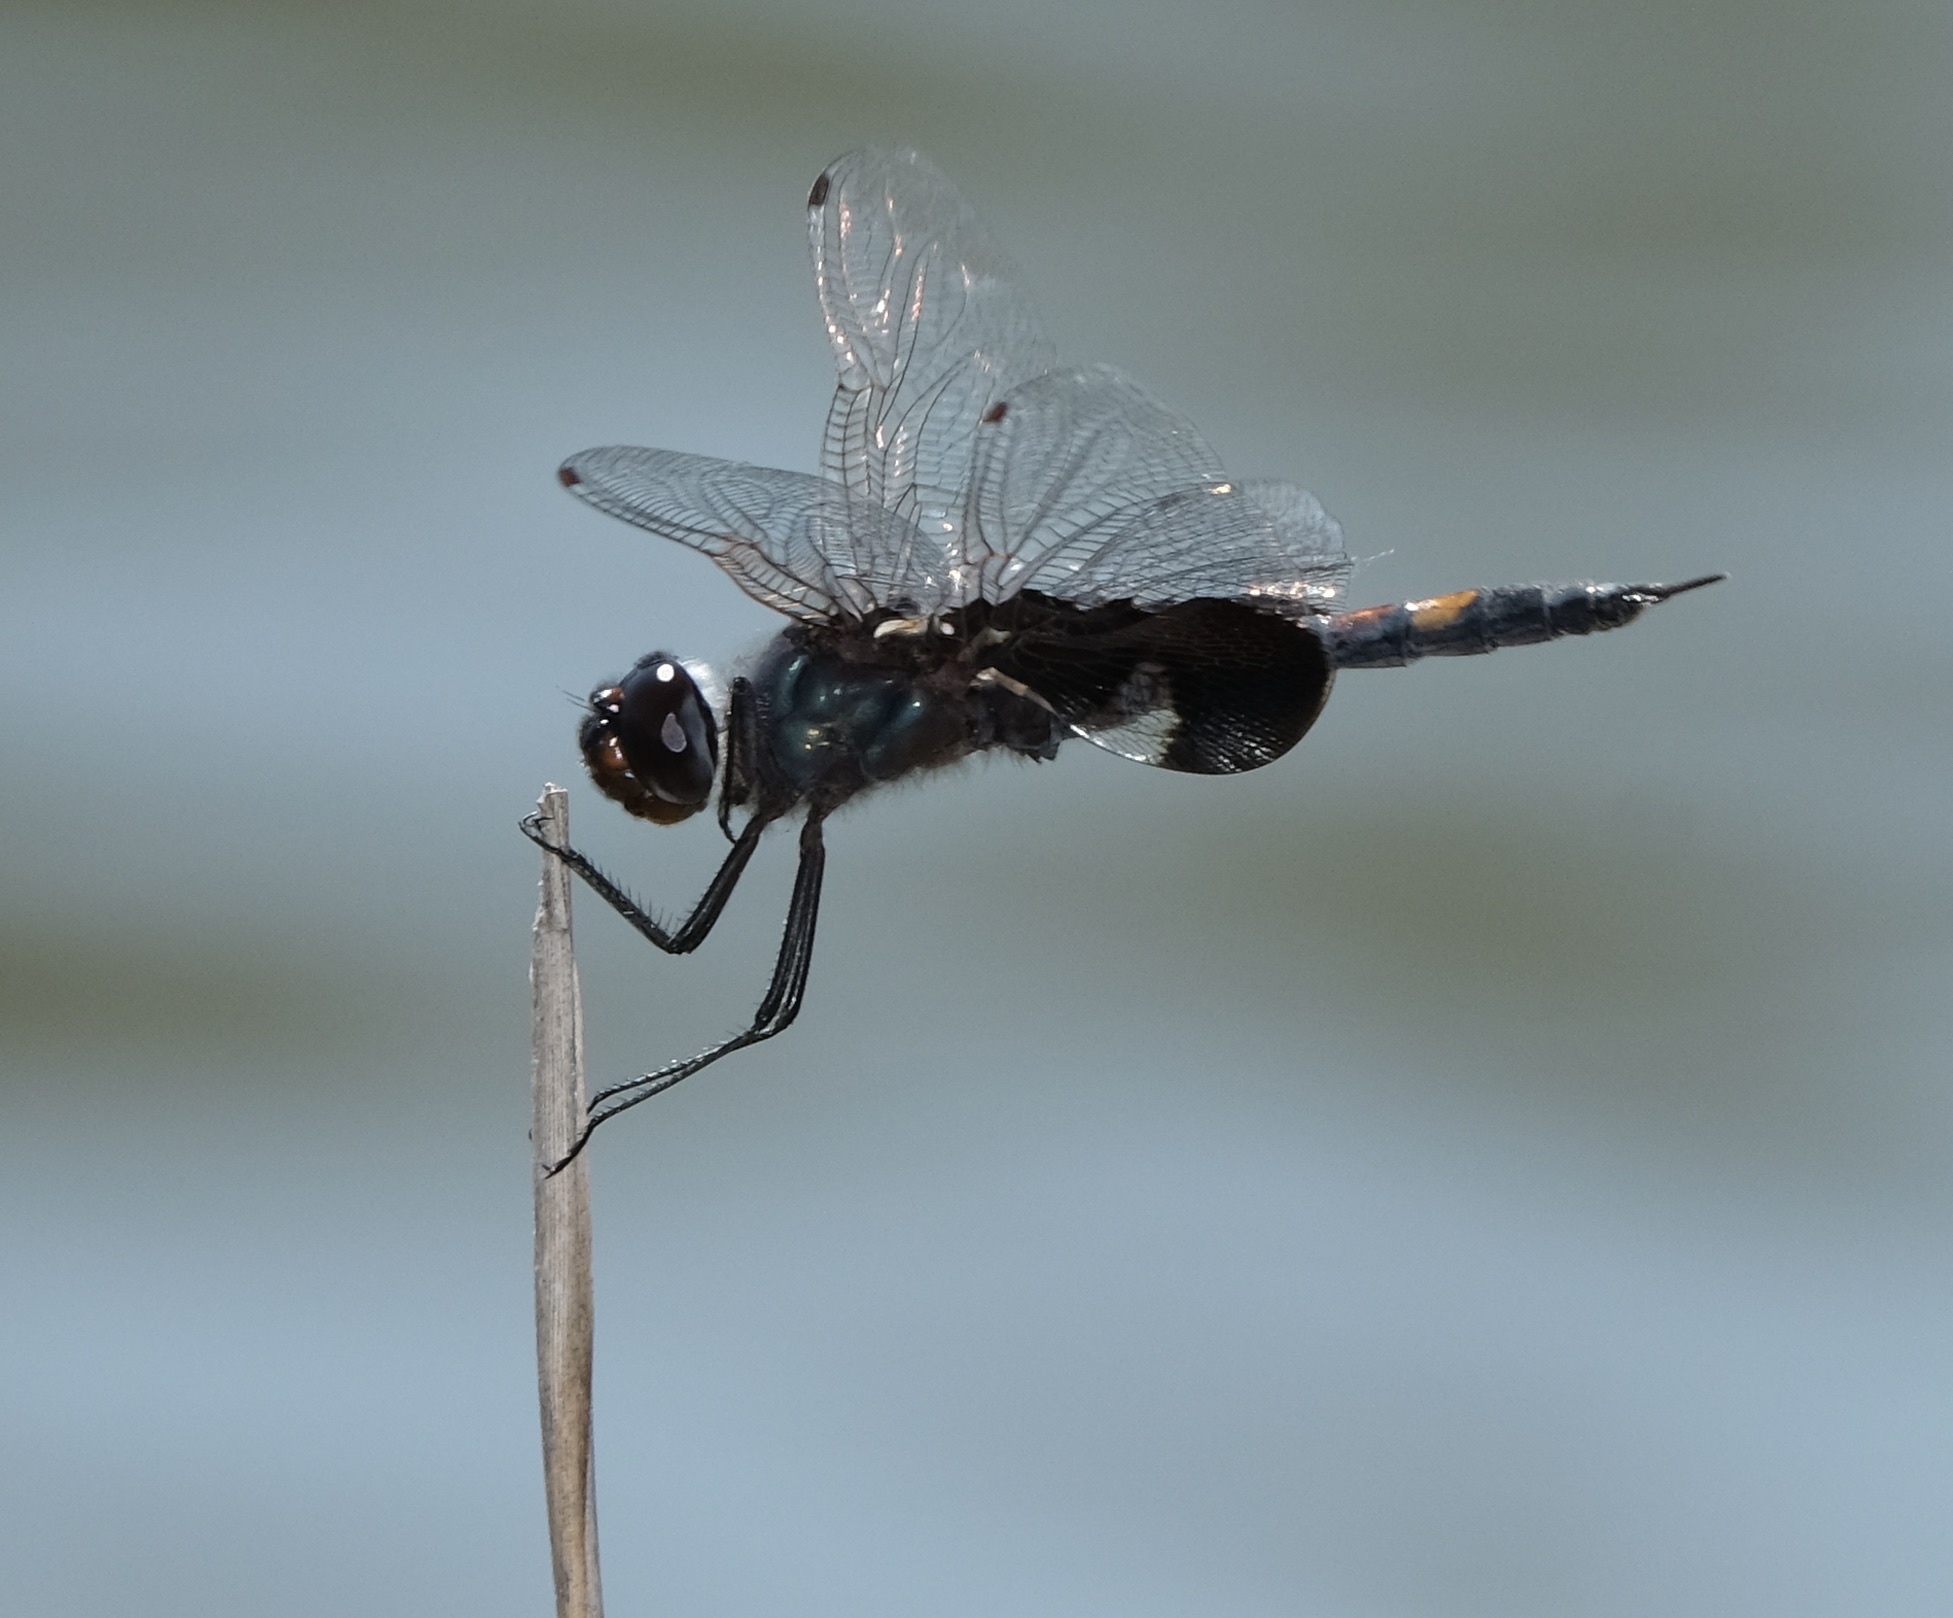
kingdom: Animalia
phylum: Arthropoda
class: Insecta
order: Odonata
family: Libellulidae
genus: Tramea
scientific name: Tramea lacerata
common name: Black saddlebags
